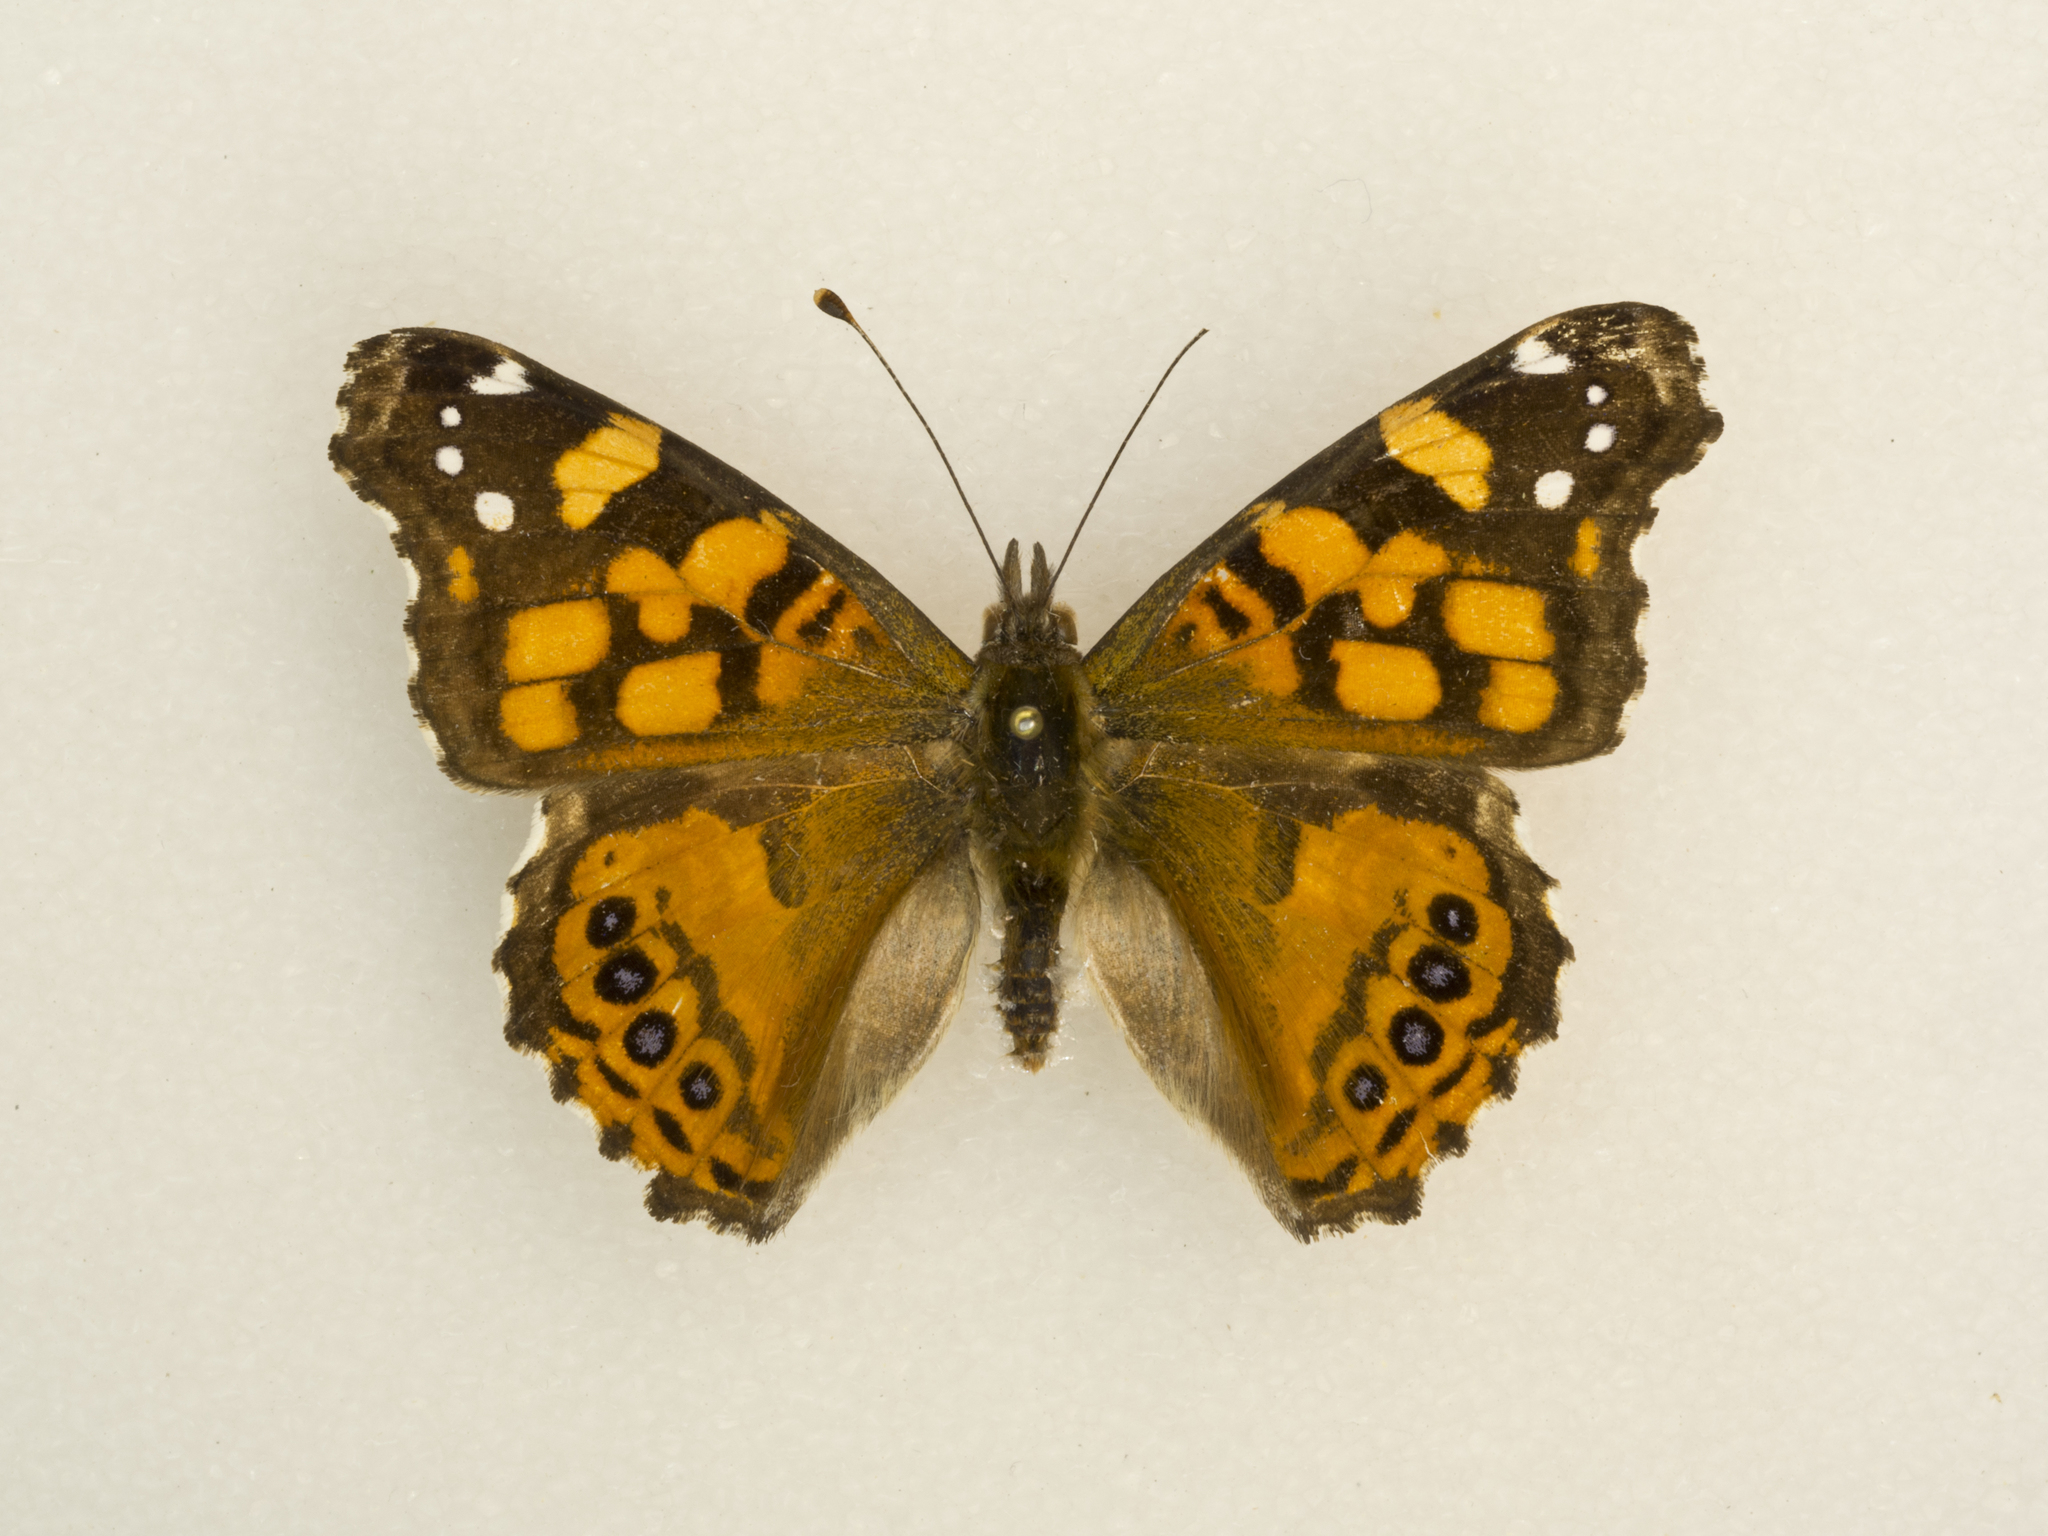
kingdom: Animalia
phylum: Arthropoda
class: Insecta
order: Lepidoptera
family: Nymphalidae
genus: Vanessa
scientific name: Vanessa annabella
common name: West coast lady
